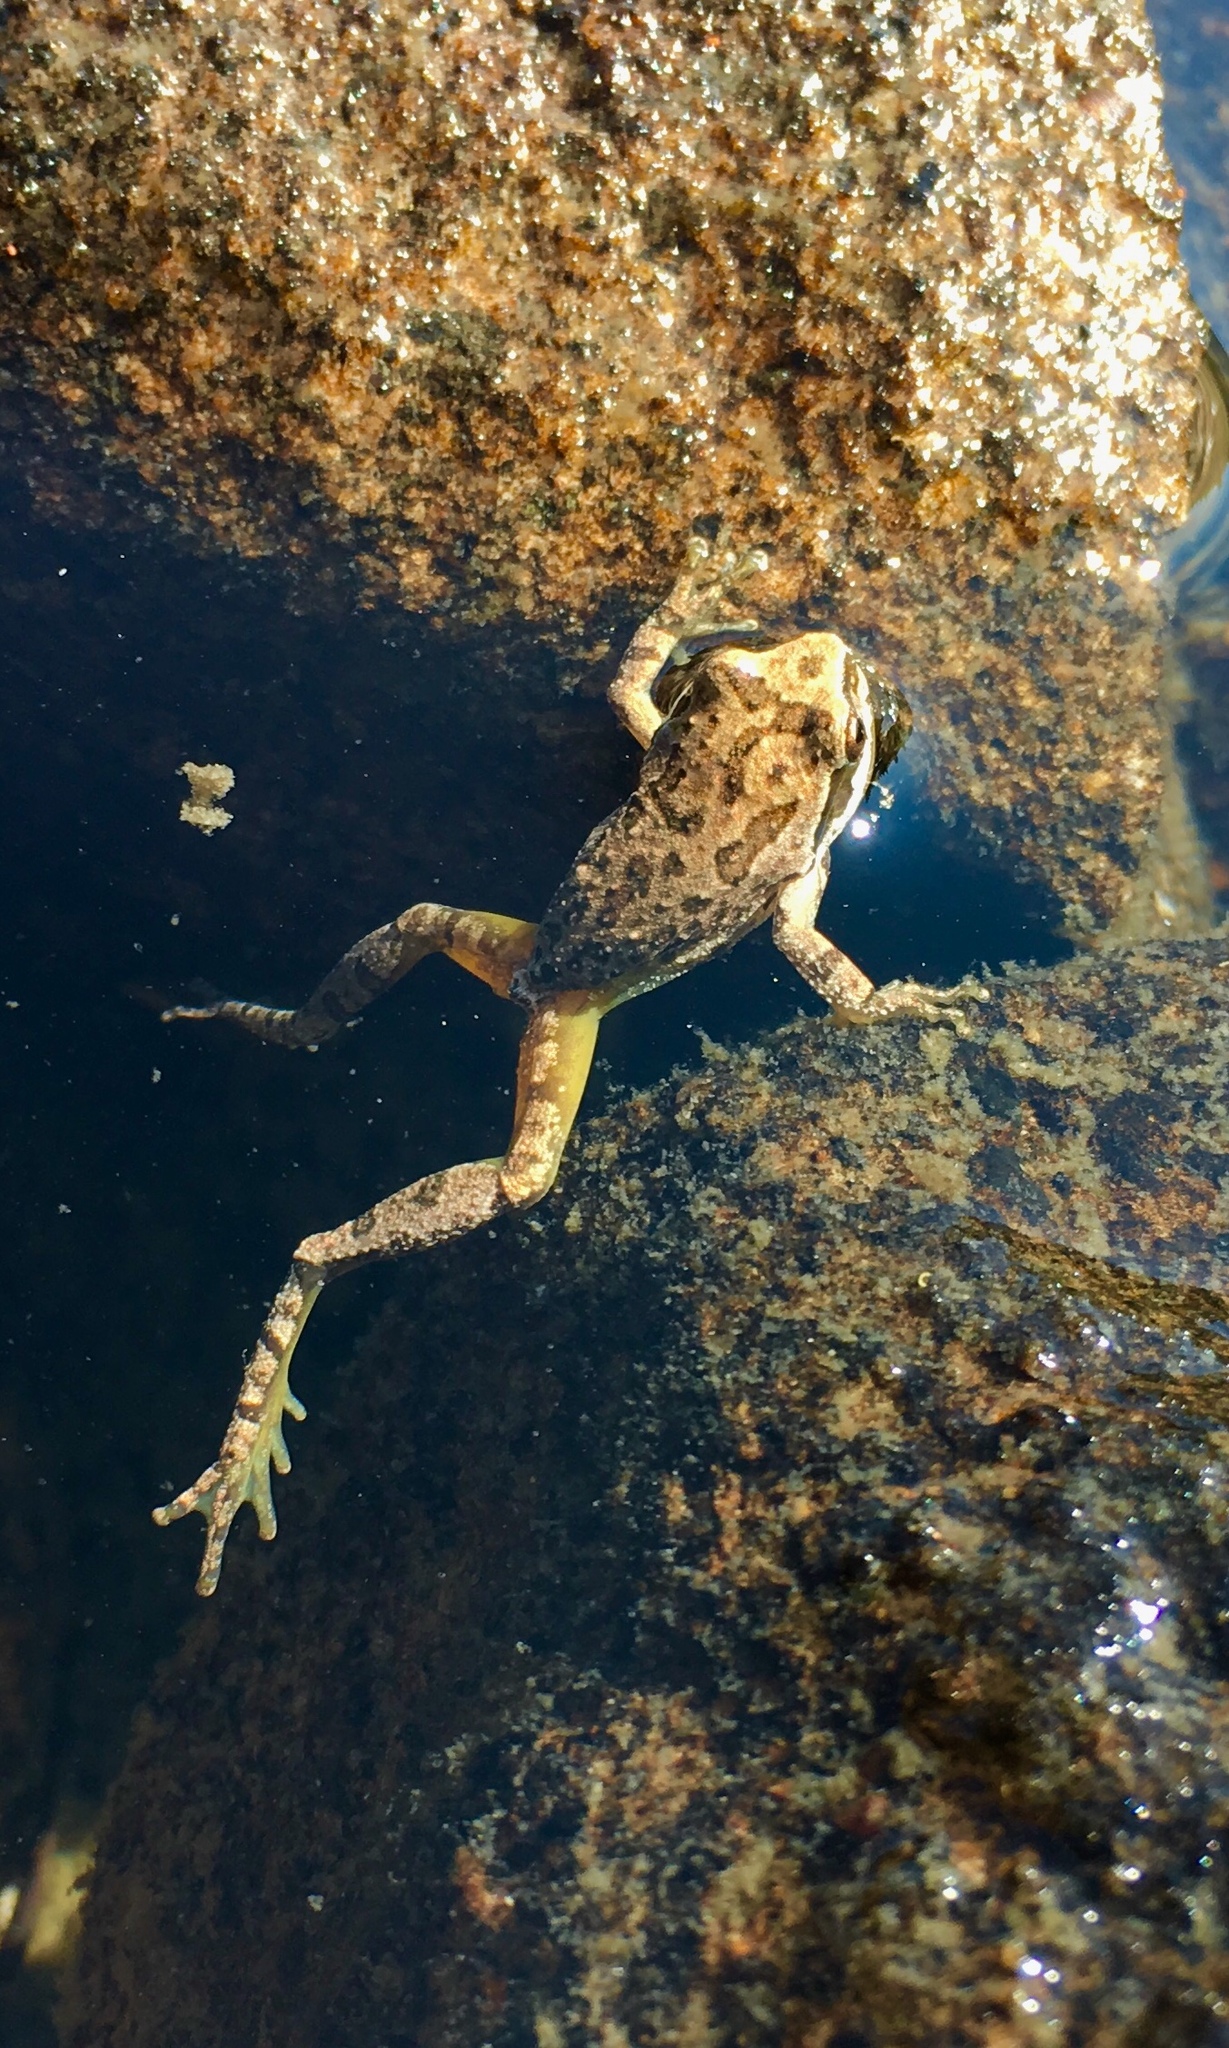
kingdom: Animalia
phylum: Chordata
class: Amphibia
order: Anura
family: Hylidae
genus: Pseudacris
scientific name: Pseudacris regilla
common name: Pacific chorus frog
